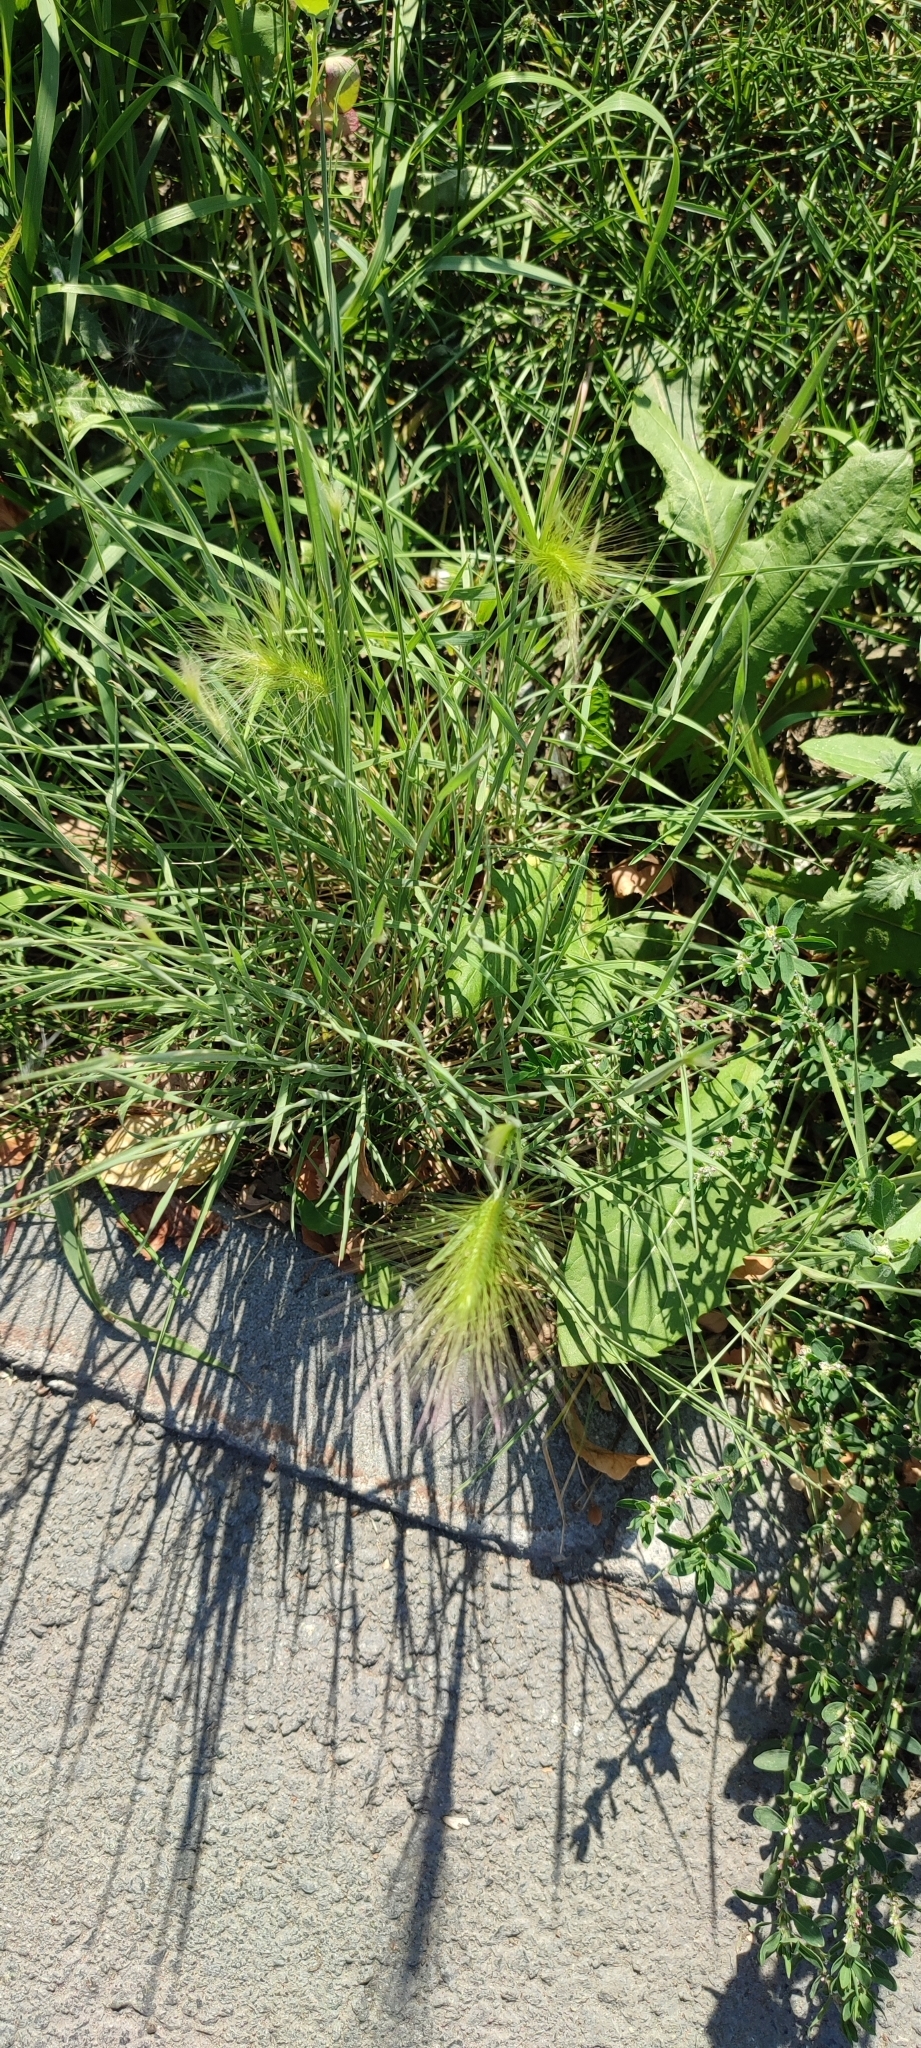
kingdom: Plantae
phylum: Tracheophyta
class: Liliopsida
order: Poales
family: Poaceae
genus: Hordeum
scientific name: Hordeum jubatum
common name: Foxtail barley
